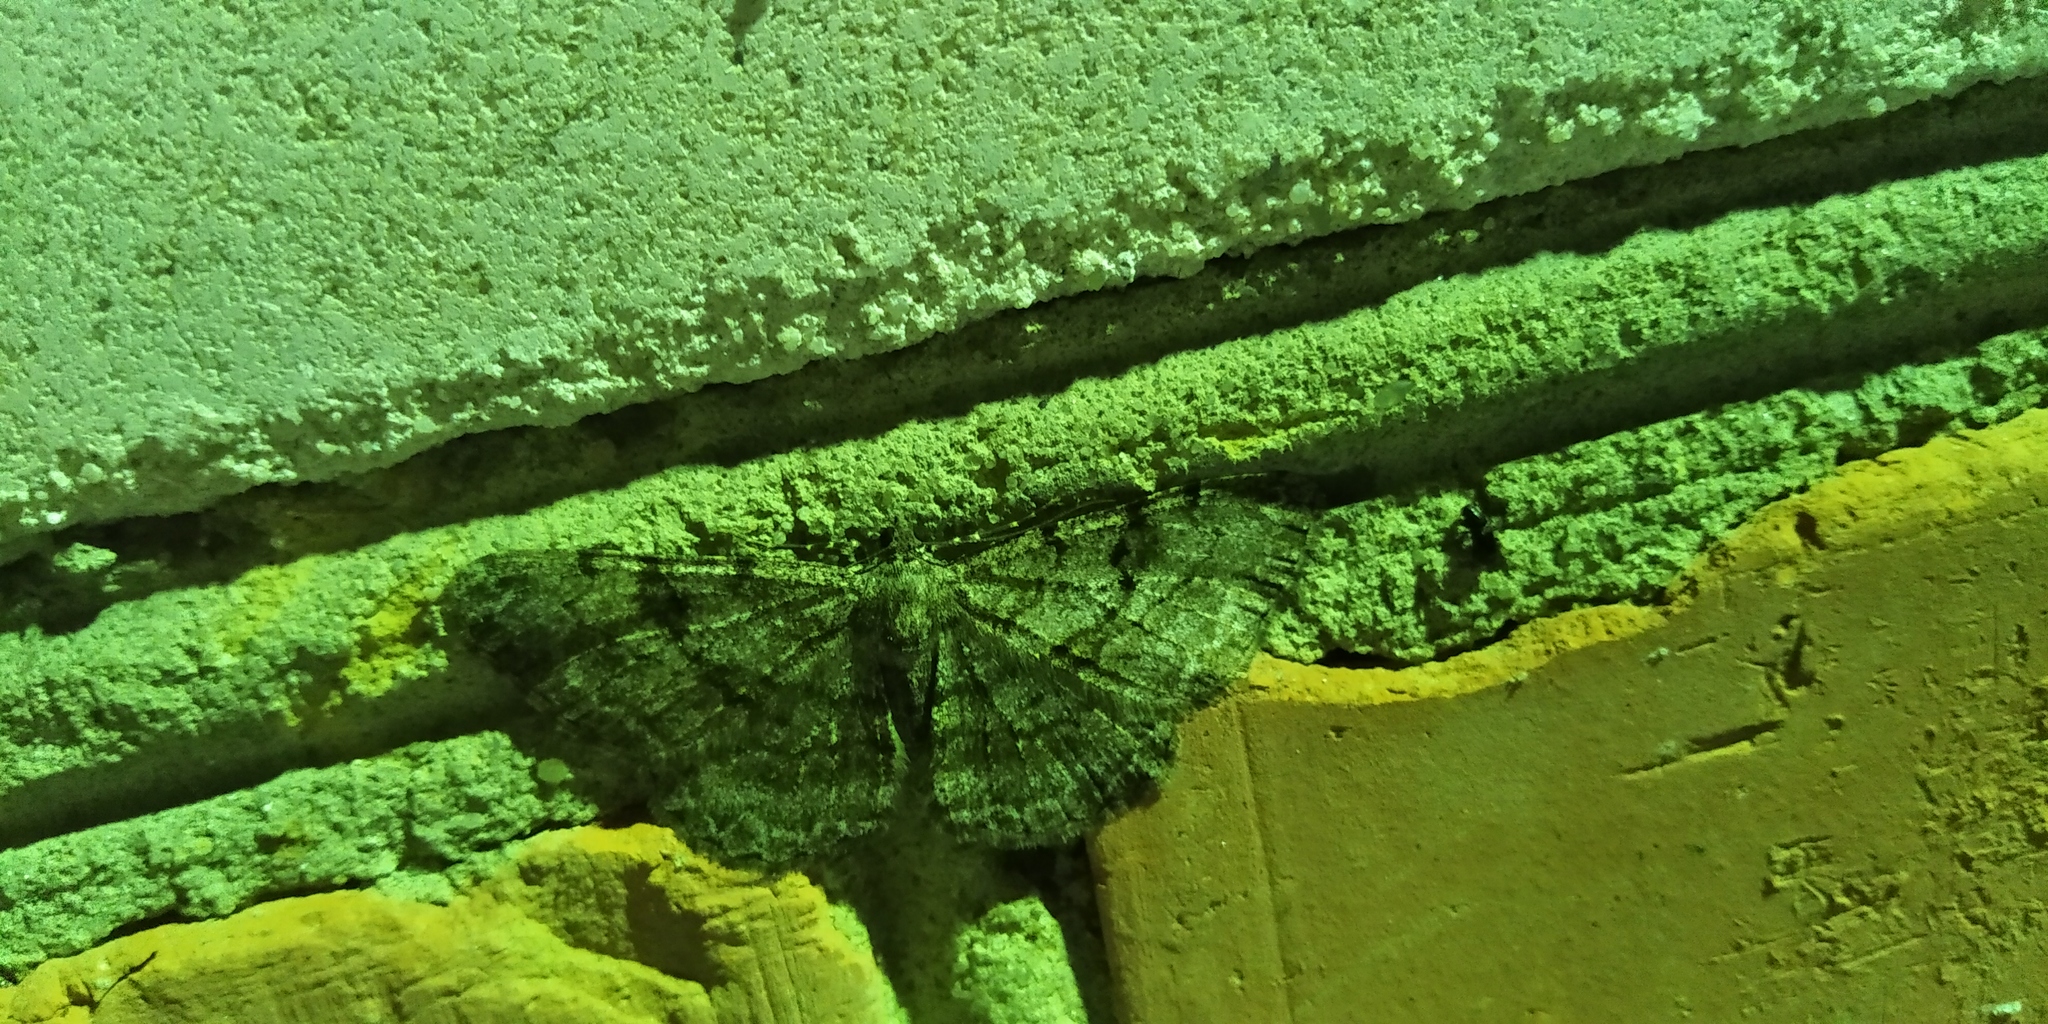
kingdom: Animalia
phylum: Arthropoda
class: Insecta
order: Lepidoptera
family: Geometridae
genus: Peribatodes
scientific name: Peribatodes rhomboidaria
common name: Willow beauty
